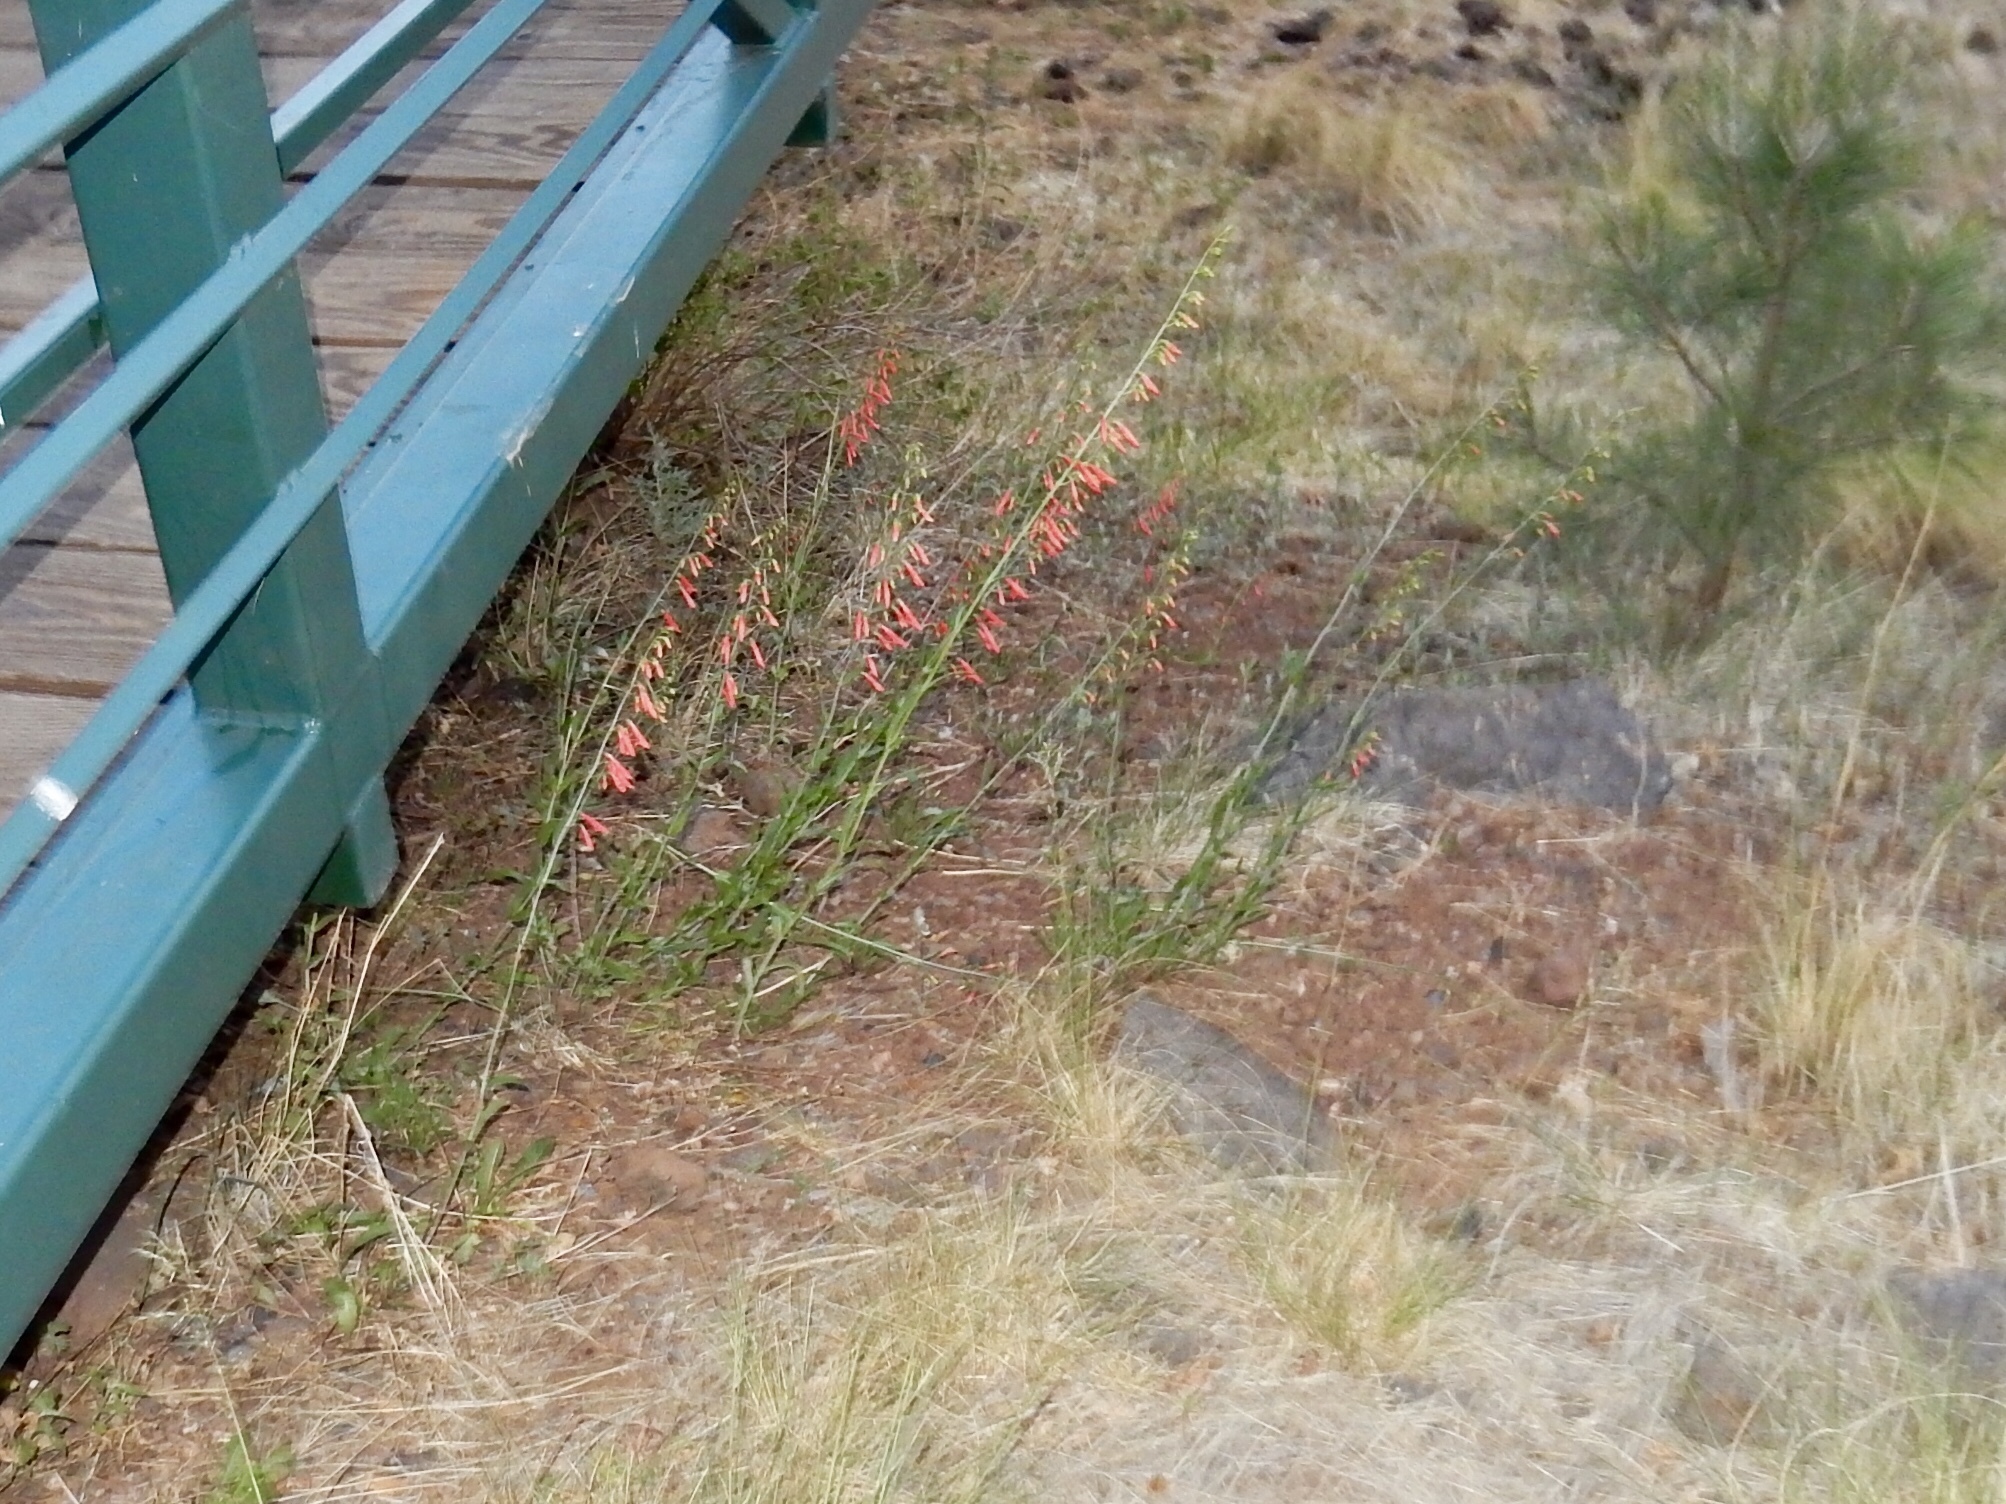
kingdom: Plantae
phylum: Tracheophyta
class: Magnoliopsida
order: Lamiales
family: Plantaginaceae
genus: Penstemon
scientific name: Penstemon barbatus
